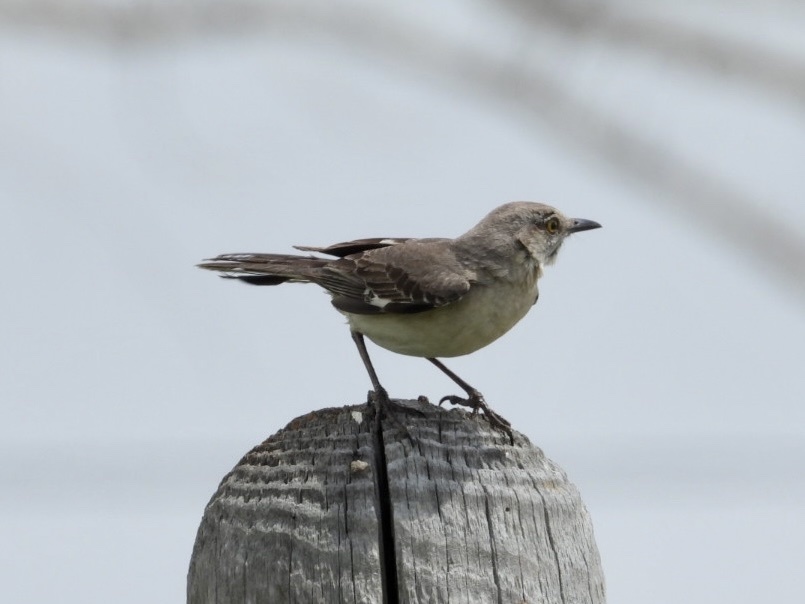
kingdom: Animalia
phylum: Chordata
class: Aves
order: Passeriformes
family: Mimidae
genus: Mimus
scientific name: Mimus polyglottos
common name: Northern mockingbird
